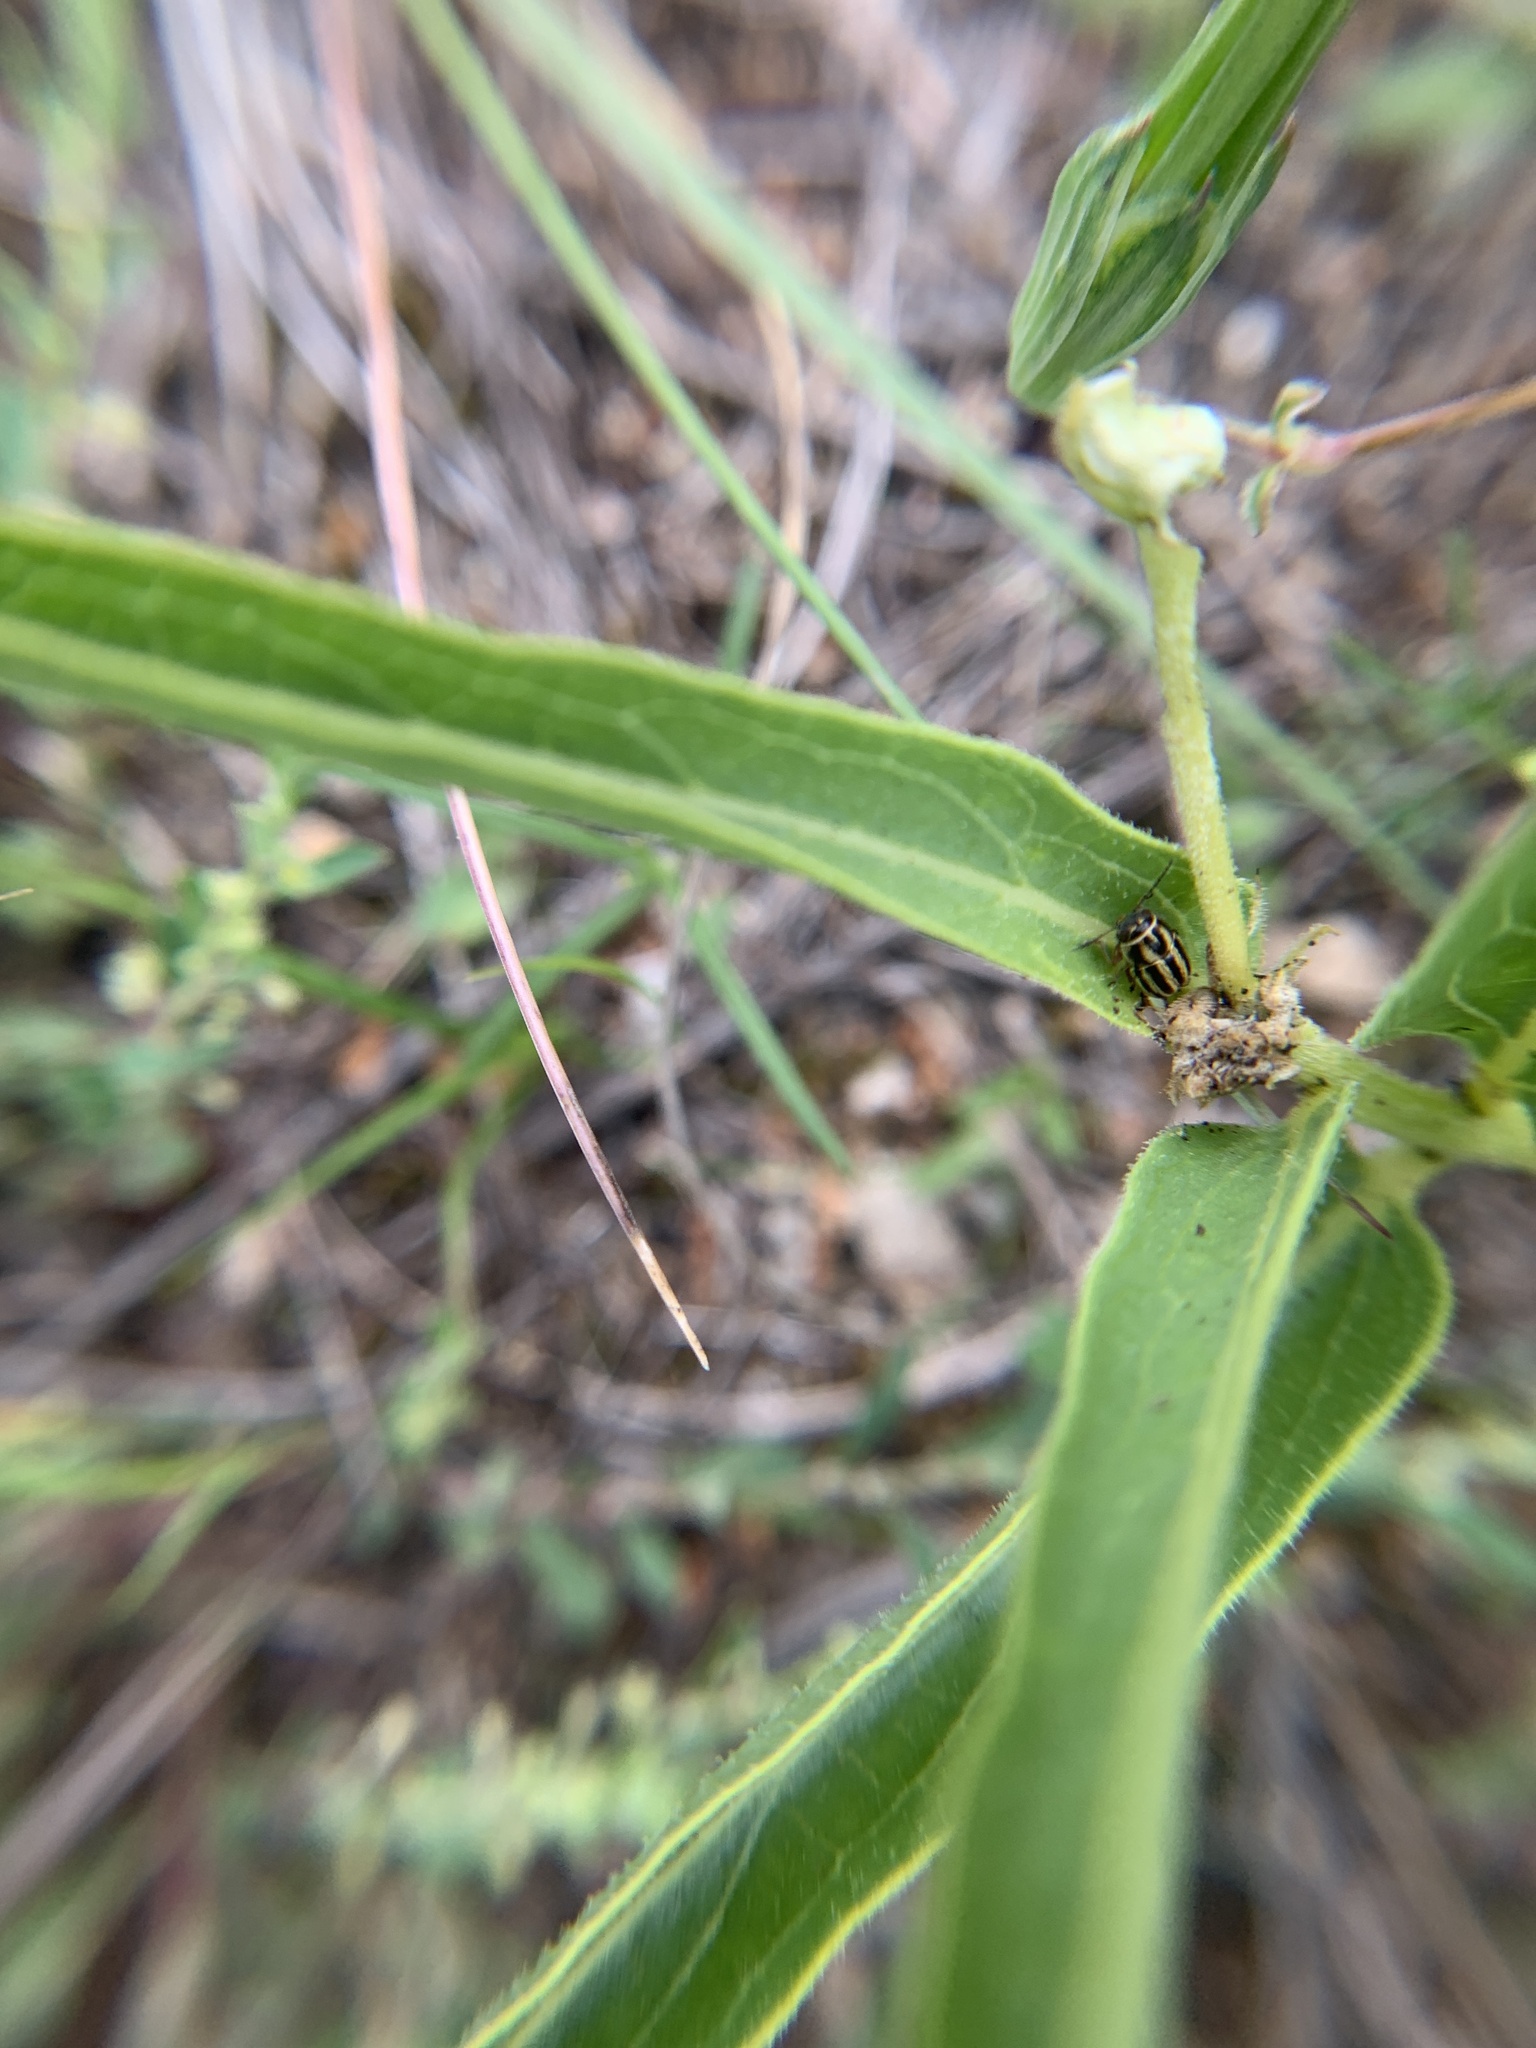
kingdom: Animalia
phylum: Arthropoda
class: Insecta
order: Coleoptera
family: Chrysomelidae
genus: Pachybrachis
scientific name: Pachybrachis dubiosus
